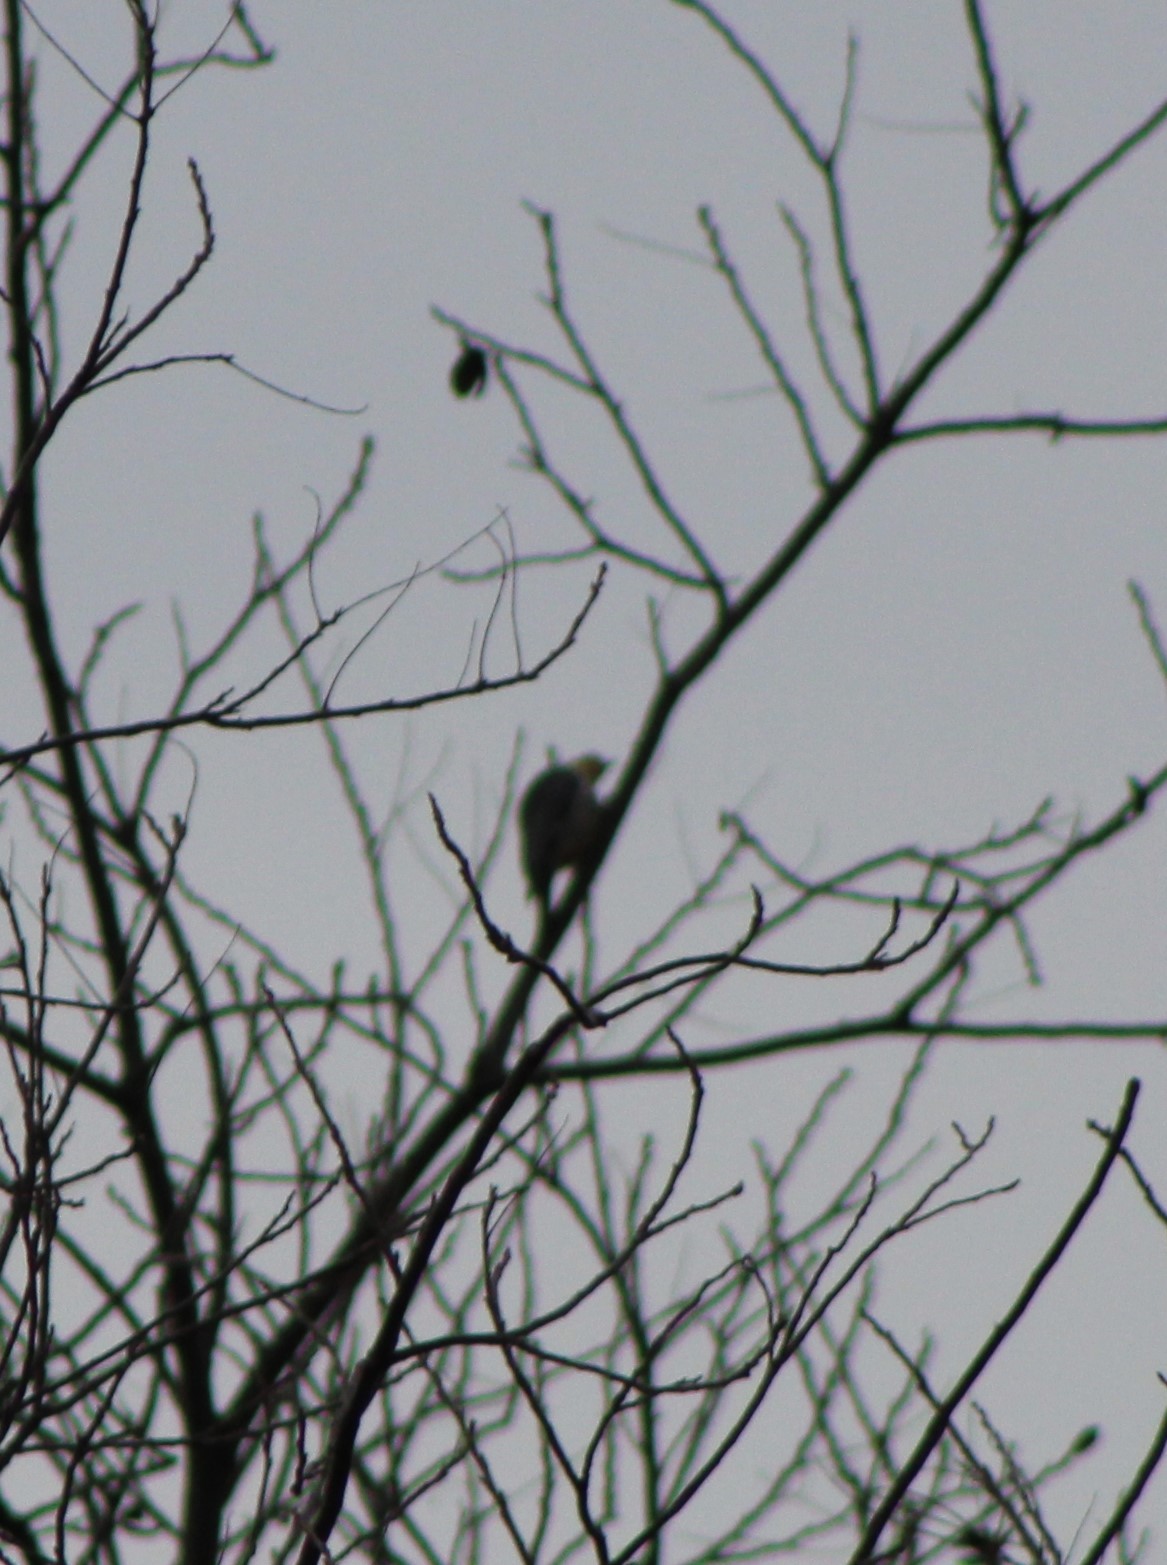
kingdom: Animalia
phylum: Chordata
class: Aves
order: Piciformes
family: Picidae
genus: Melanerpes
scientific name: Melanerpes carolinus
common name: Red-bellied woodpecker
